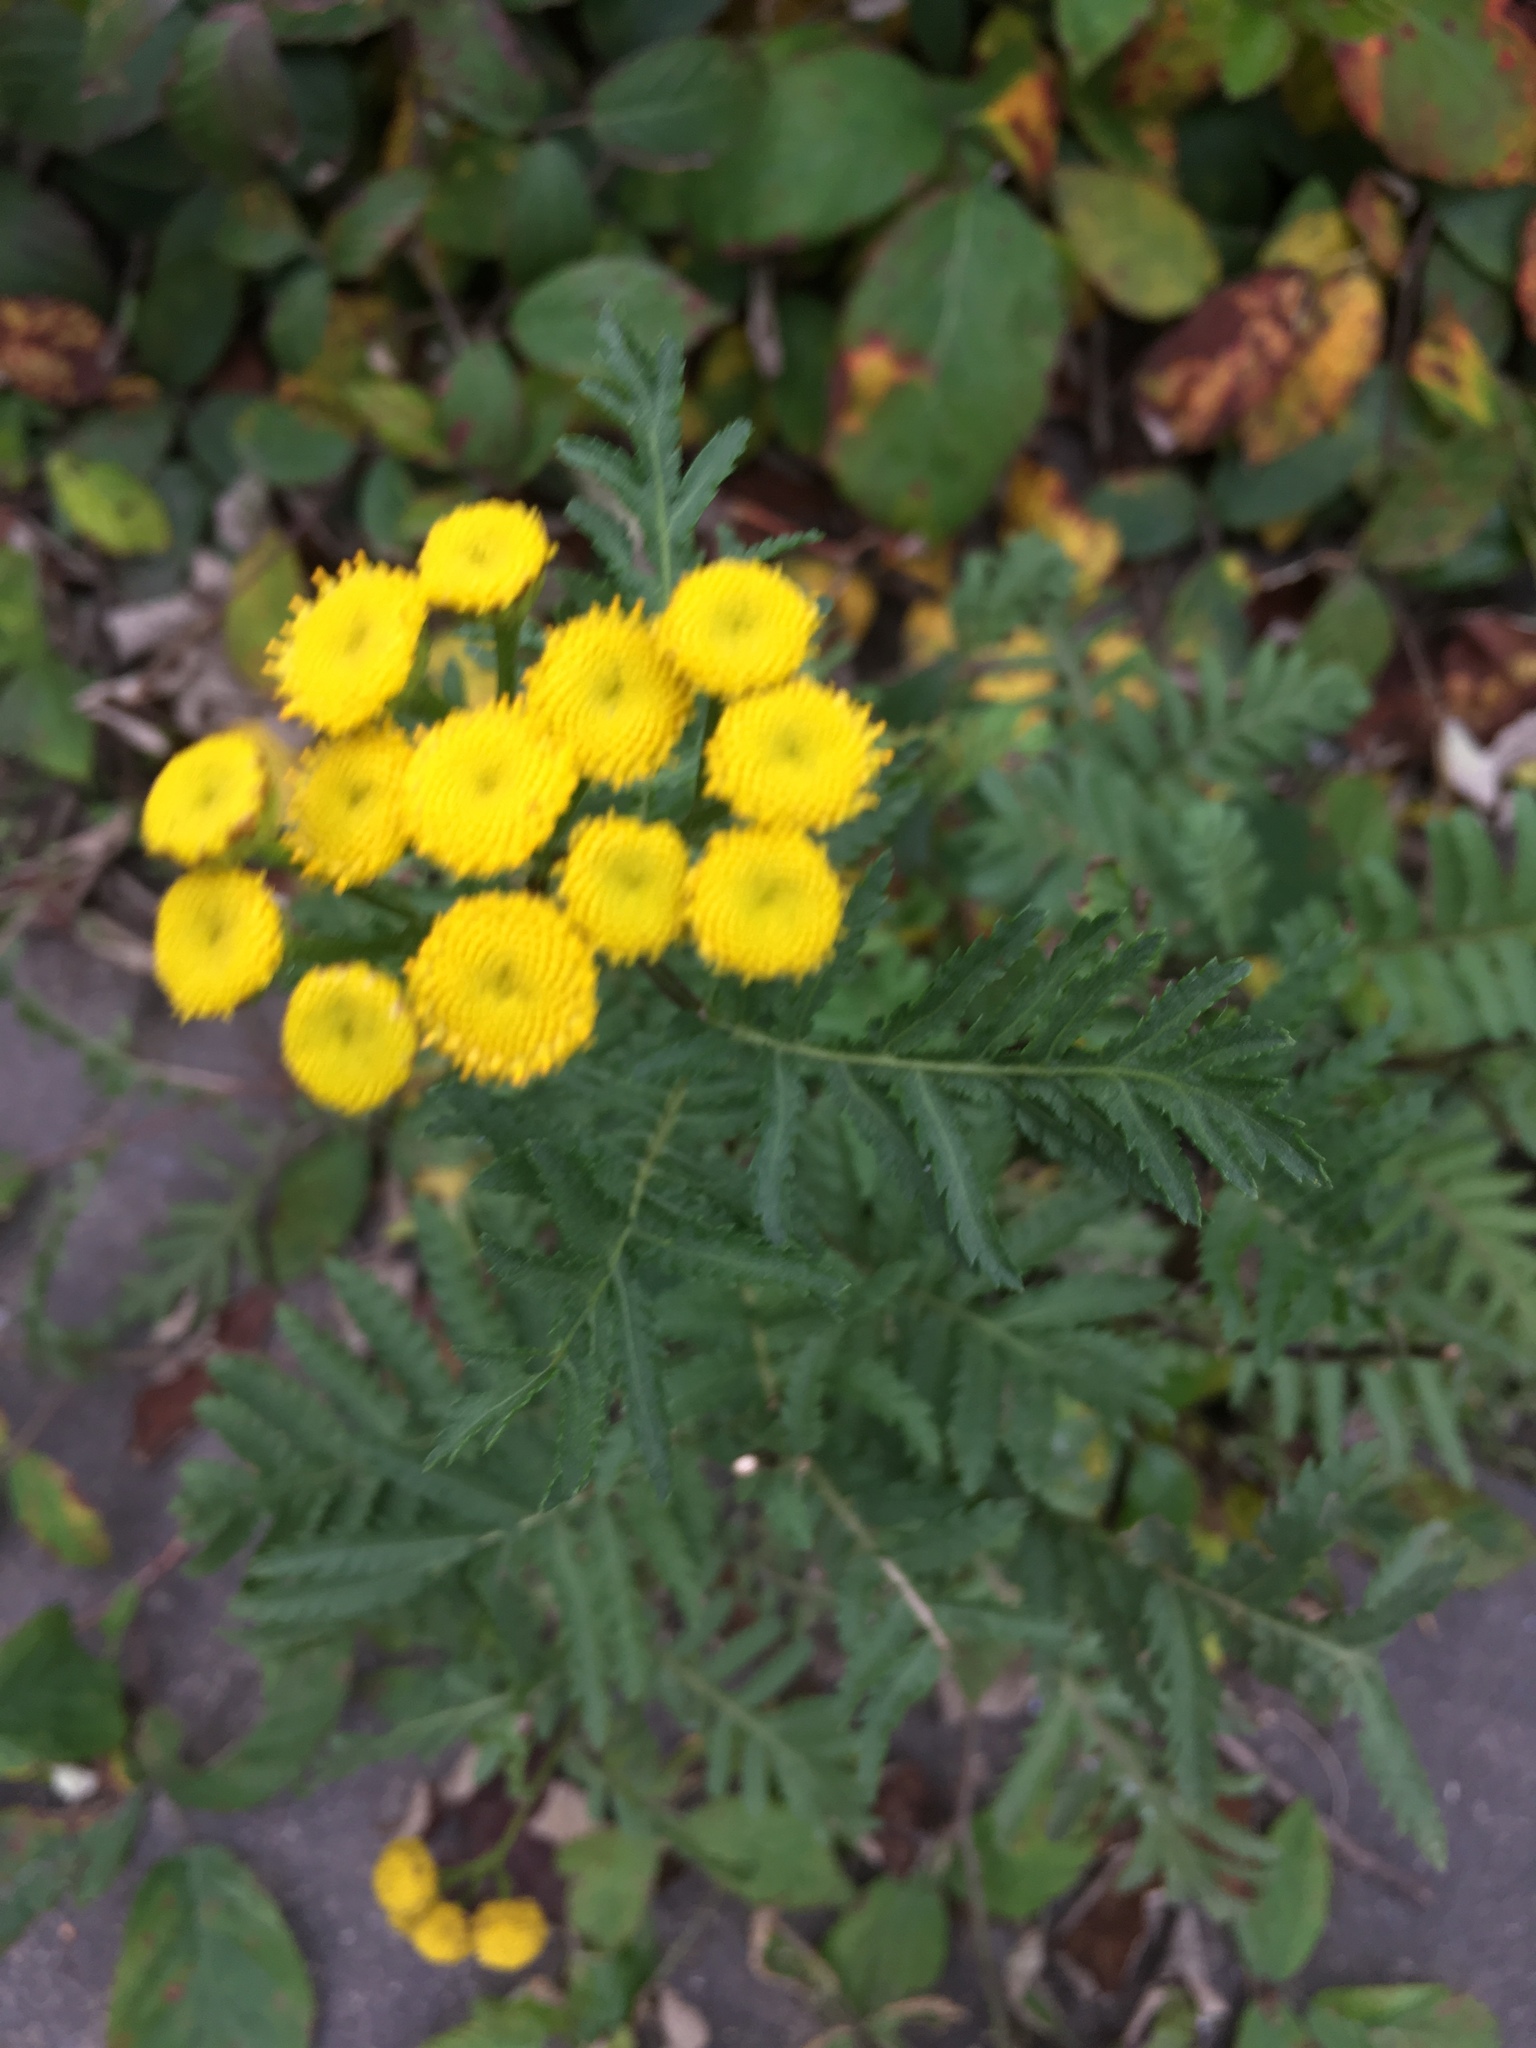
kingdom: Plantae
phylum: Tracheophyta
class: Magnoliopsida
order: Asterales
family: Asteraceae
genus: Tanacetum
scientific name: Tanacetum vulgare
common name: Common tansy
